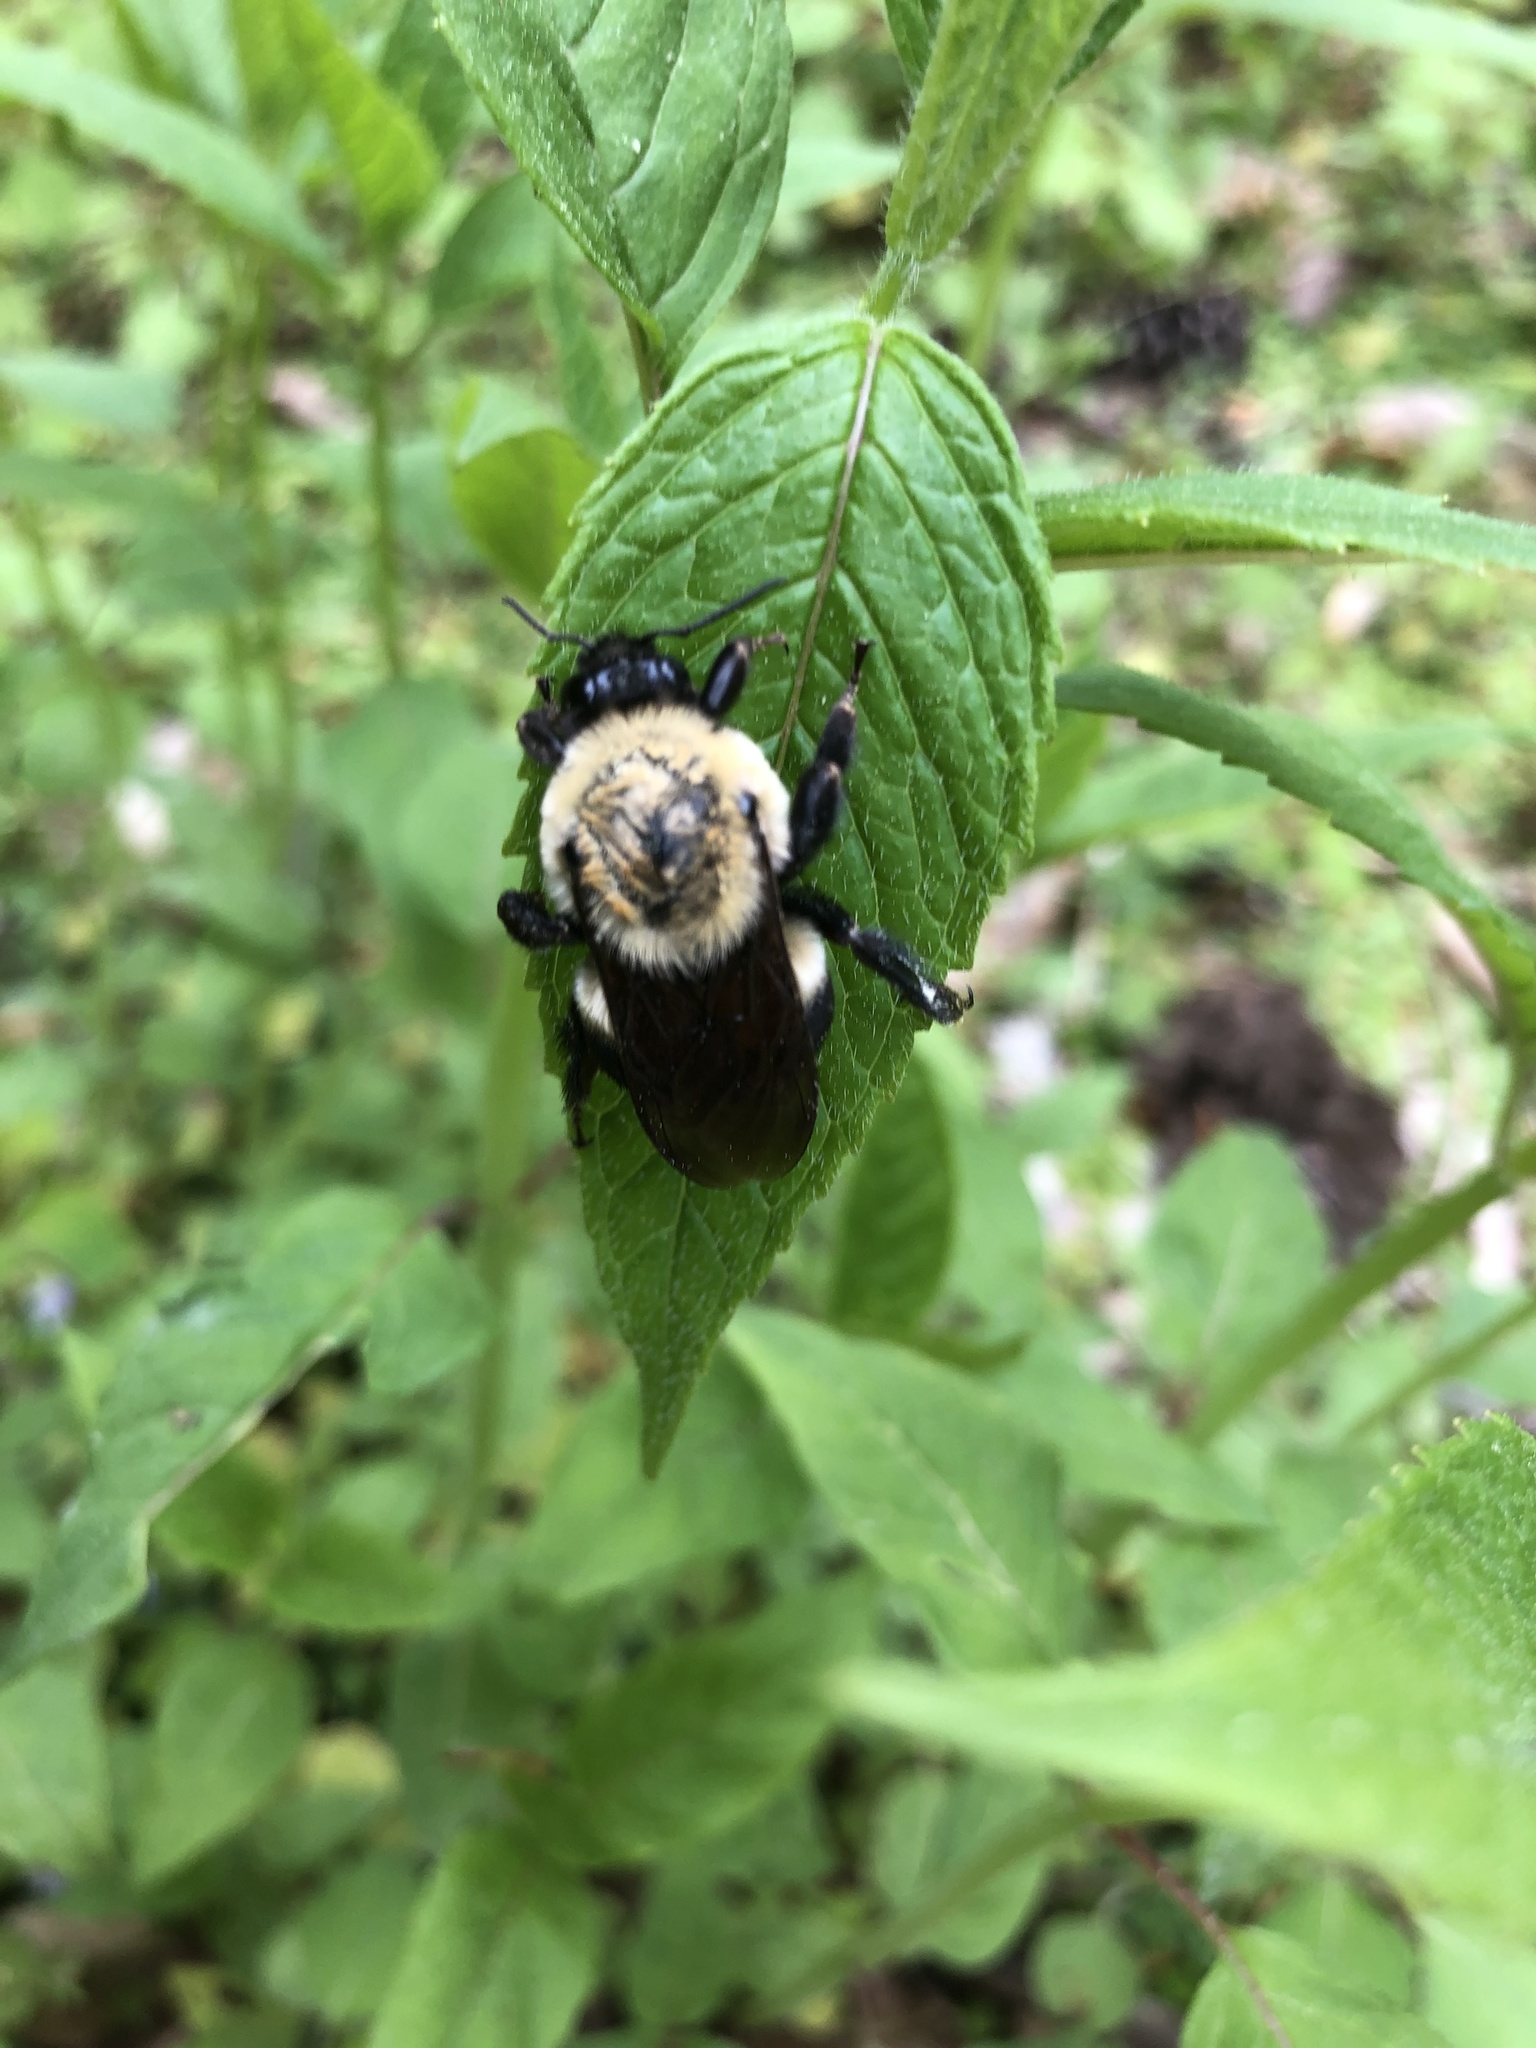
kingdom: Animalia
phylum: Arthropoda
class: Insecta
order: Hymenoptera
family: Apidae
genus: Bombus
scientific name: Bombus griseocollis
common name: Brown-belted bumble bee
